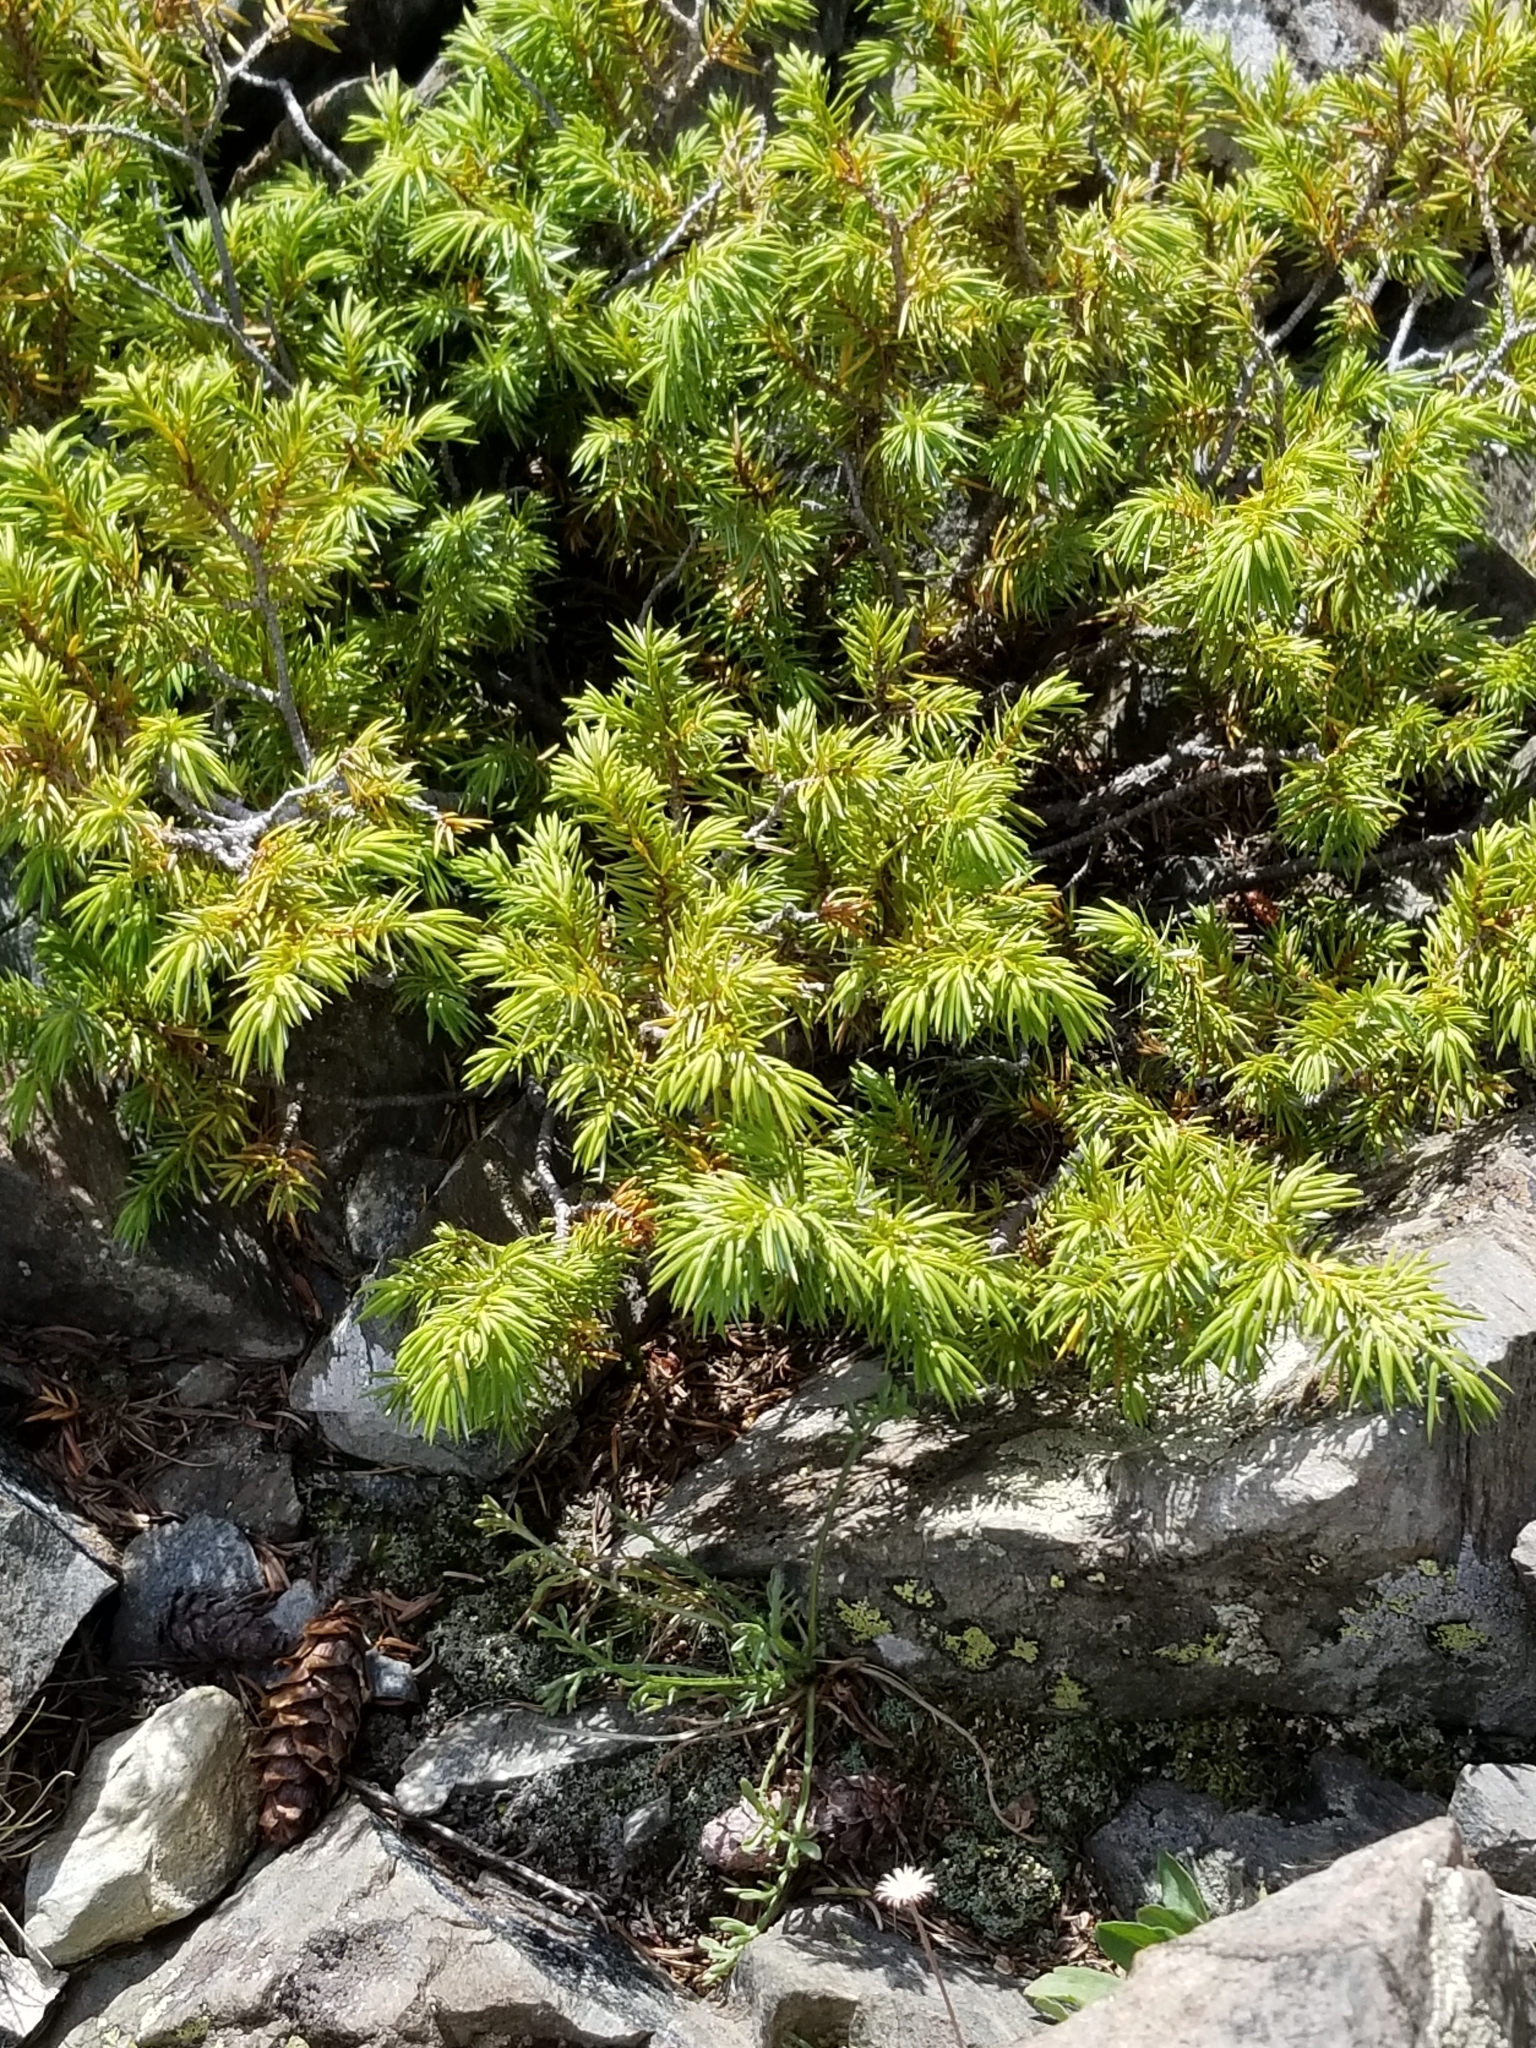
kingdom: Plantae
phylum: Tracheophyta
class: Pinopsida
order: Pinales
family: Cupressaceae
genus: Juniperus
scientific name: Juniperus communis
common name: Common juniper
